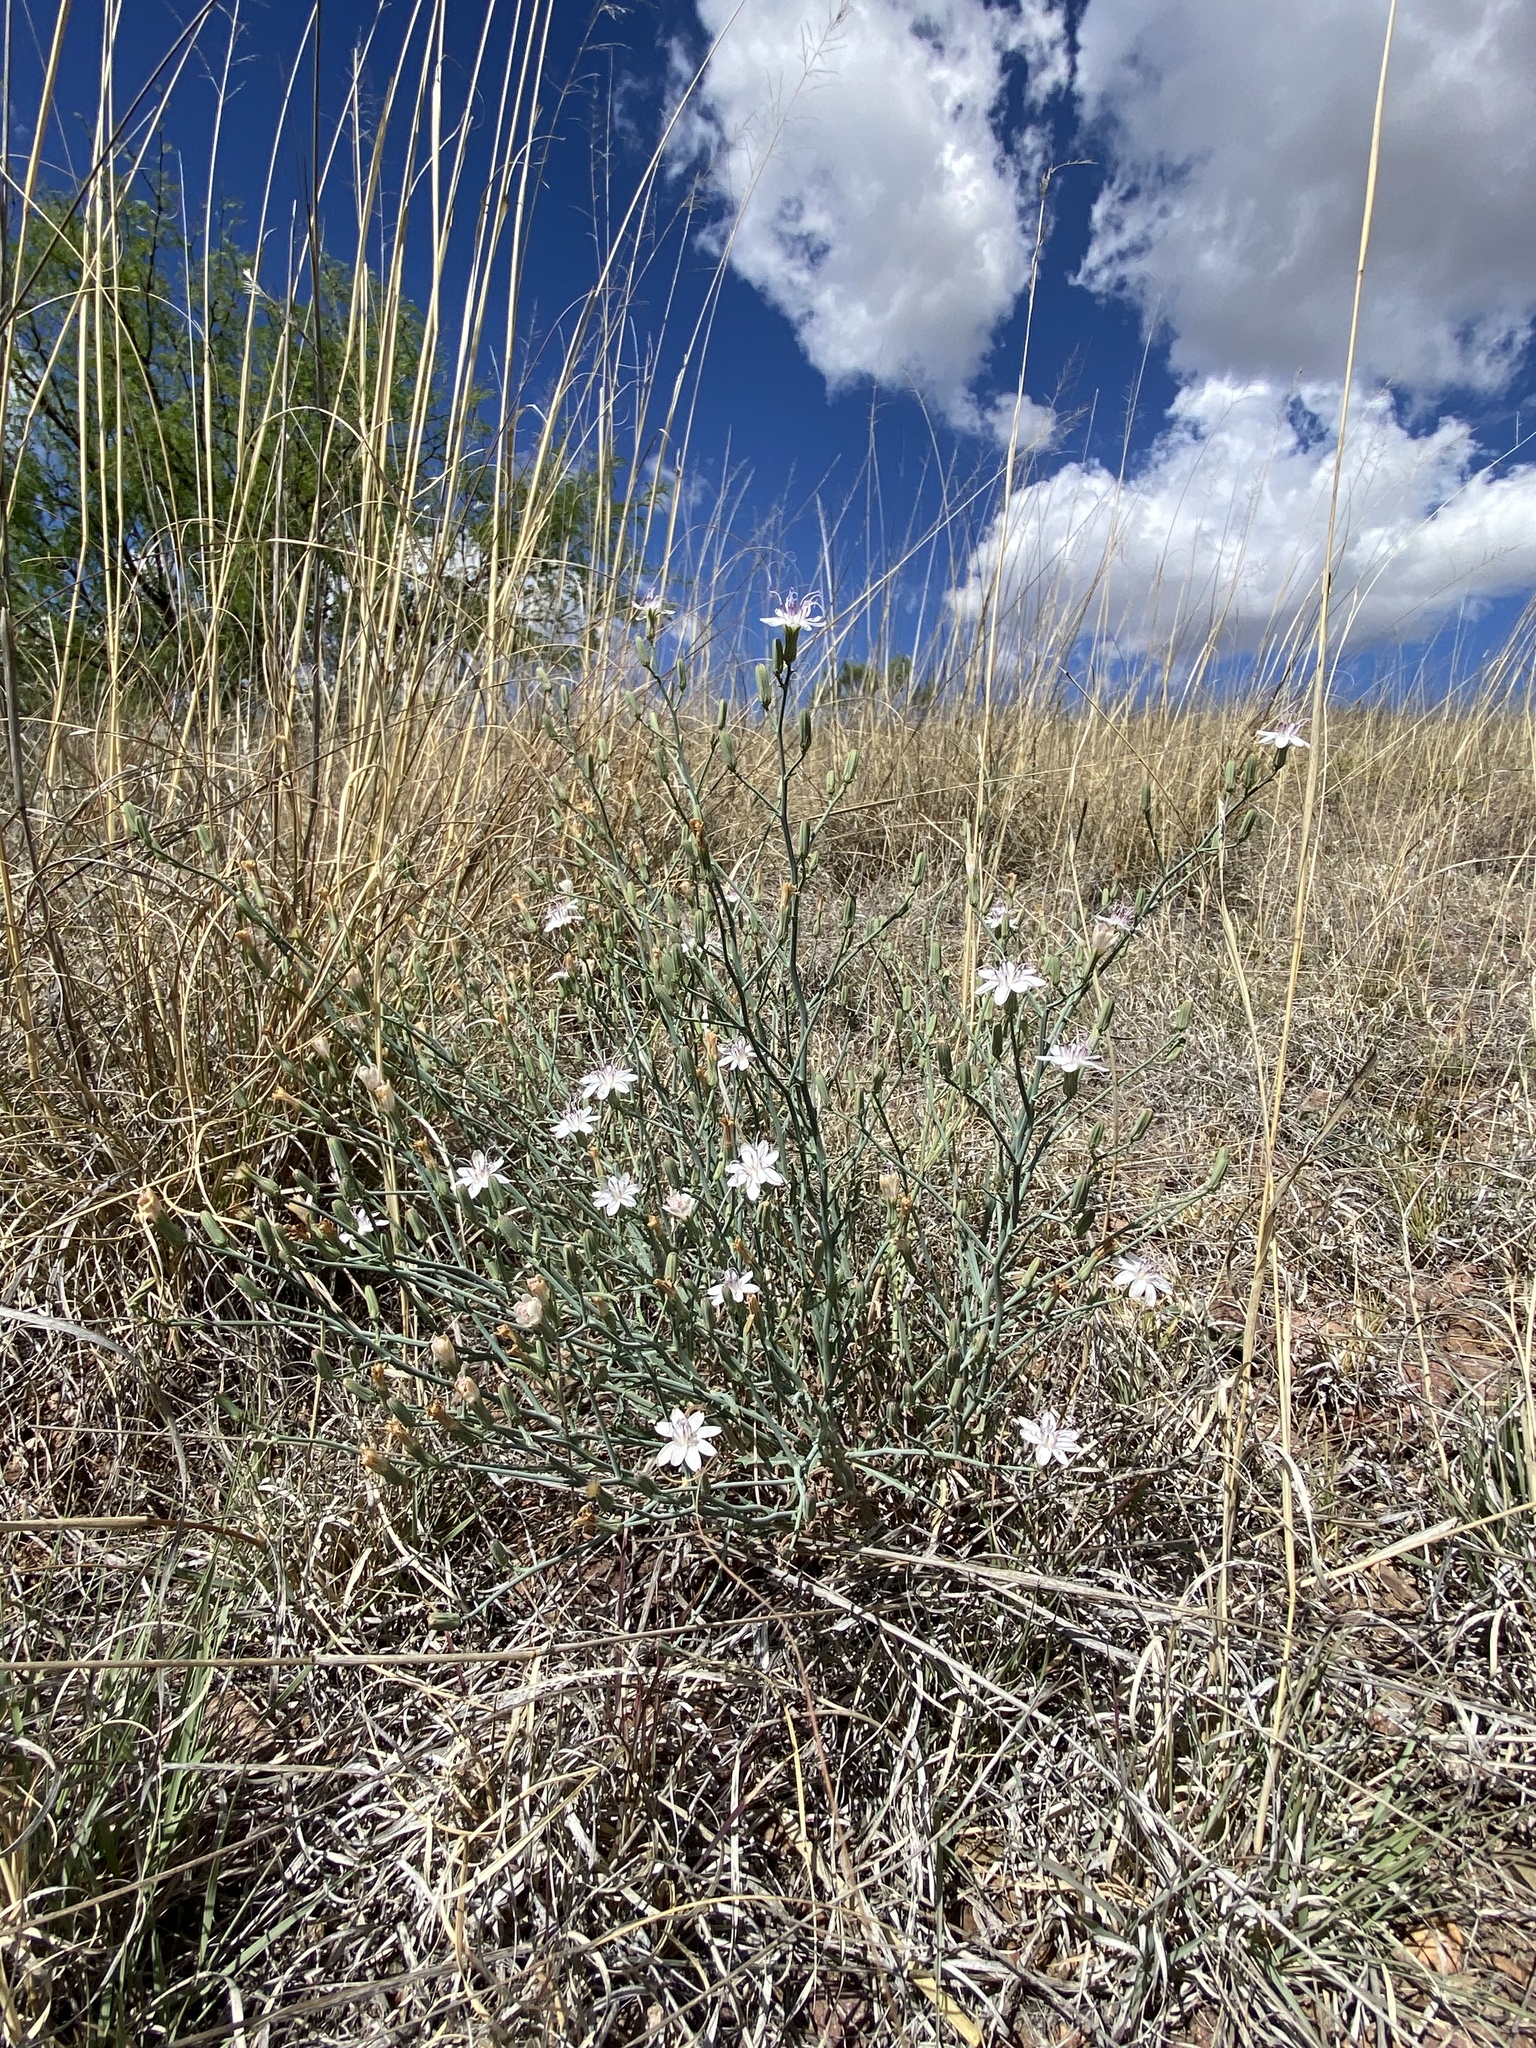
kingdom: Plantae
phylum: Tracheophyta
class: Magnoliopsida
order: Asterales
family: Asteraceae
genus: Stephanomeria
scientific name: Stephanomeria pauciflora
